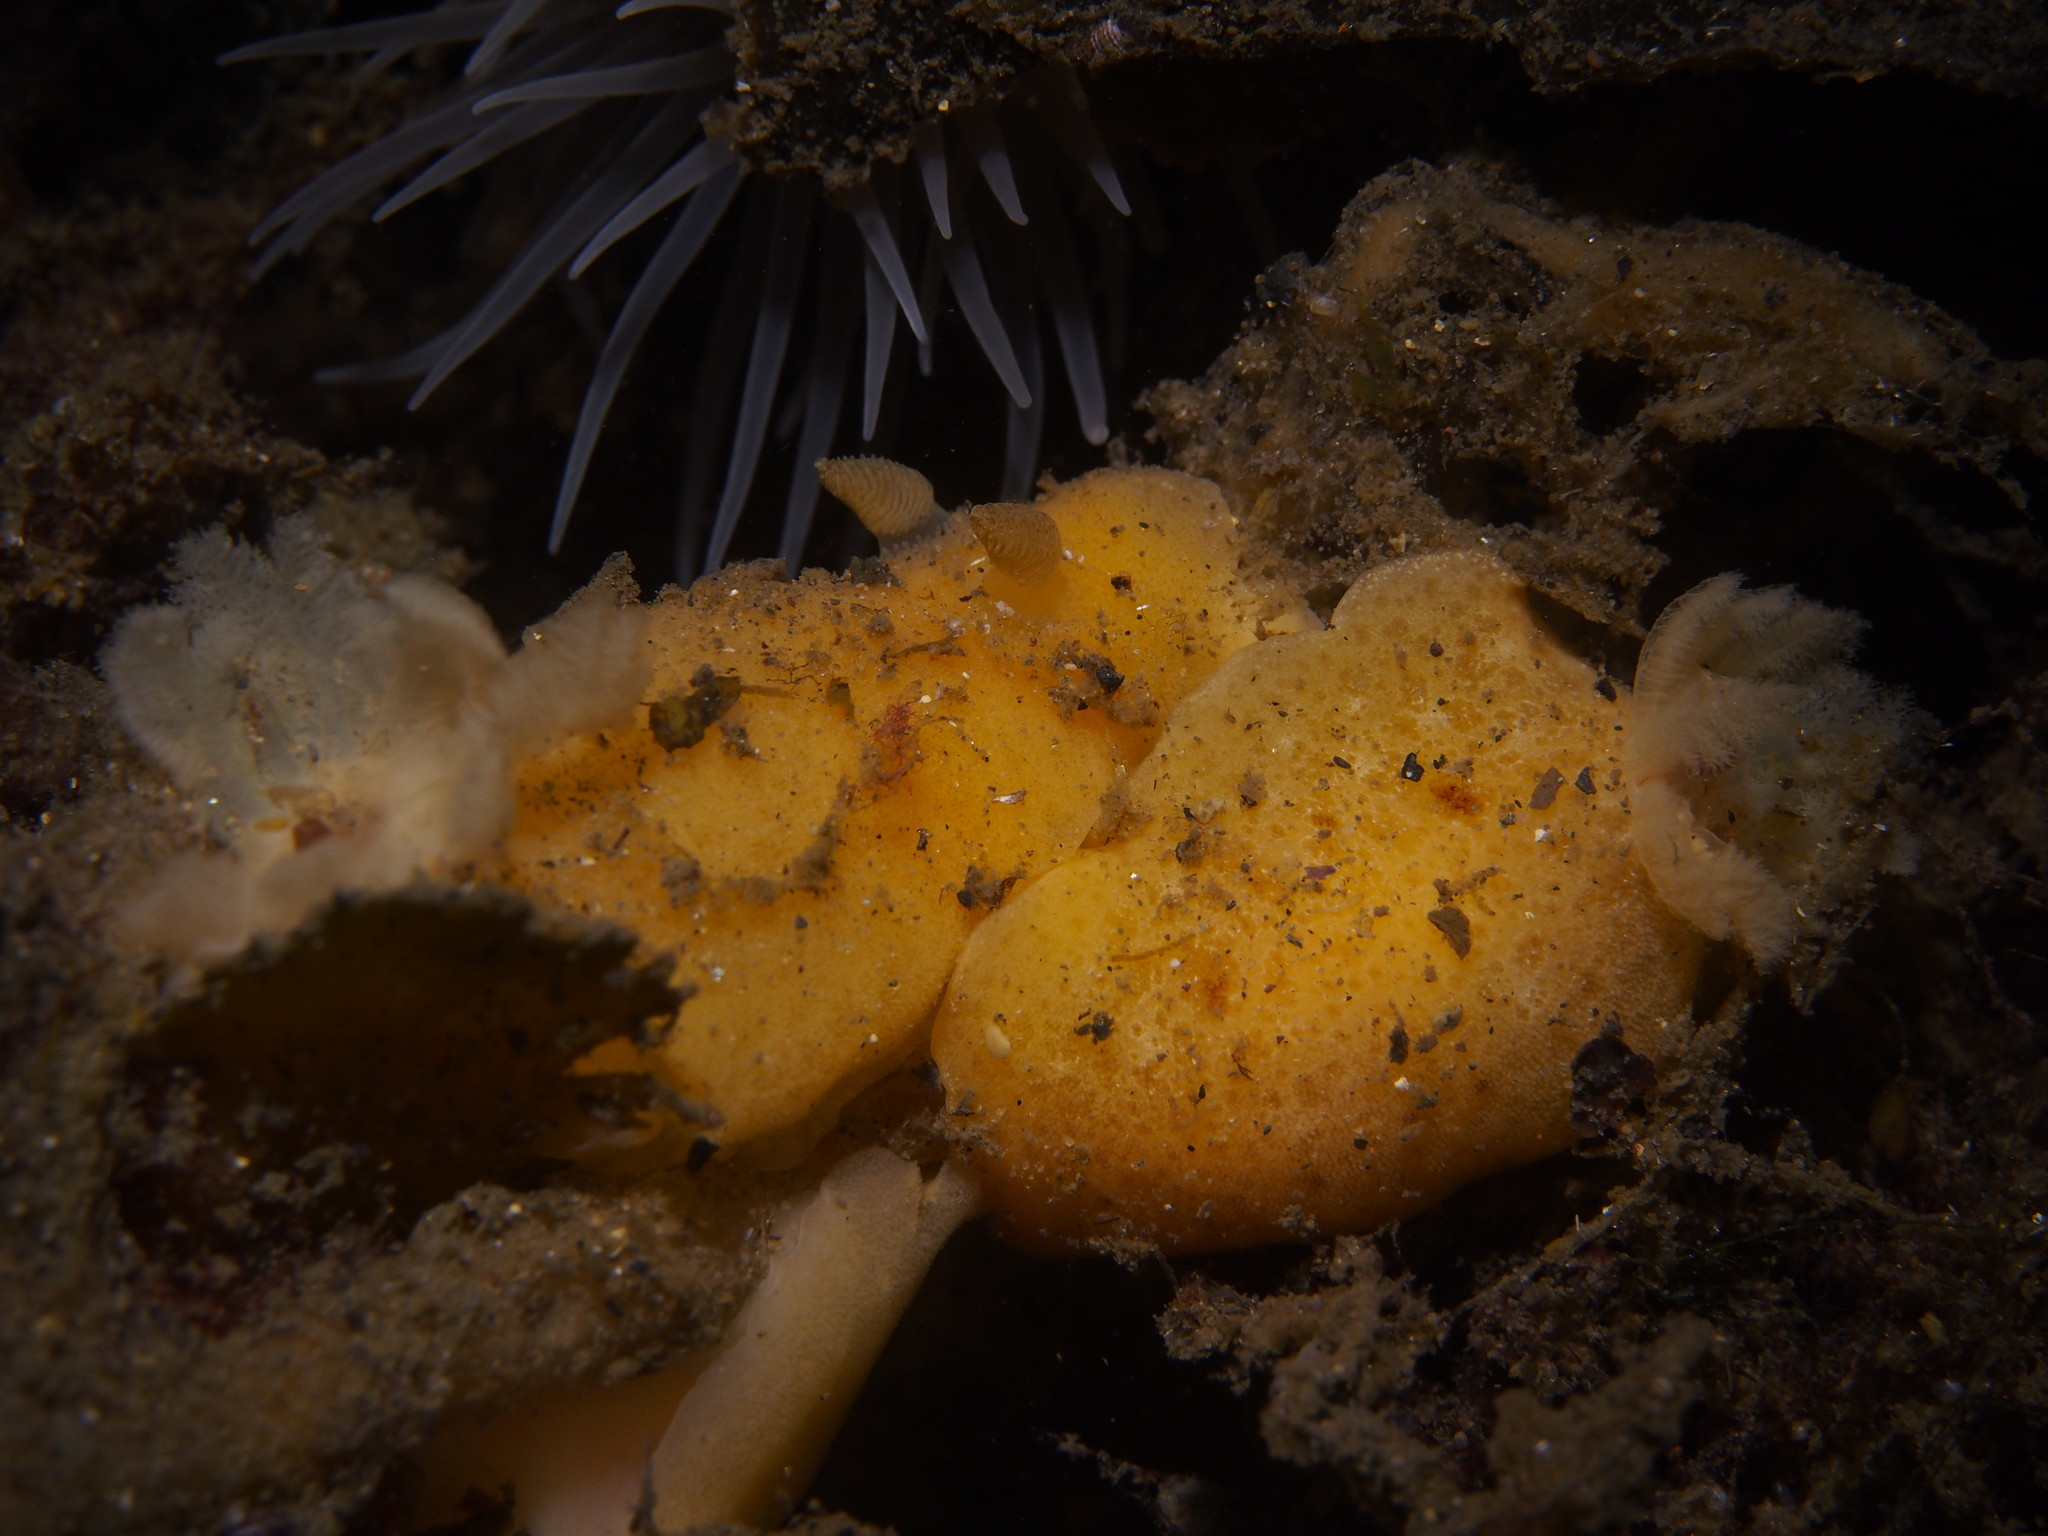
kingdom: Animalia
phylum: Mollusca
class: Gastropoda
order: Nudibranchia
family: Discodorididae
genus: Jorunna
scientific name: Jorunna tomentosa
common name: Grey sea slug
